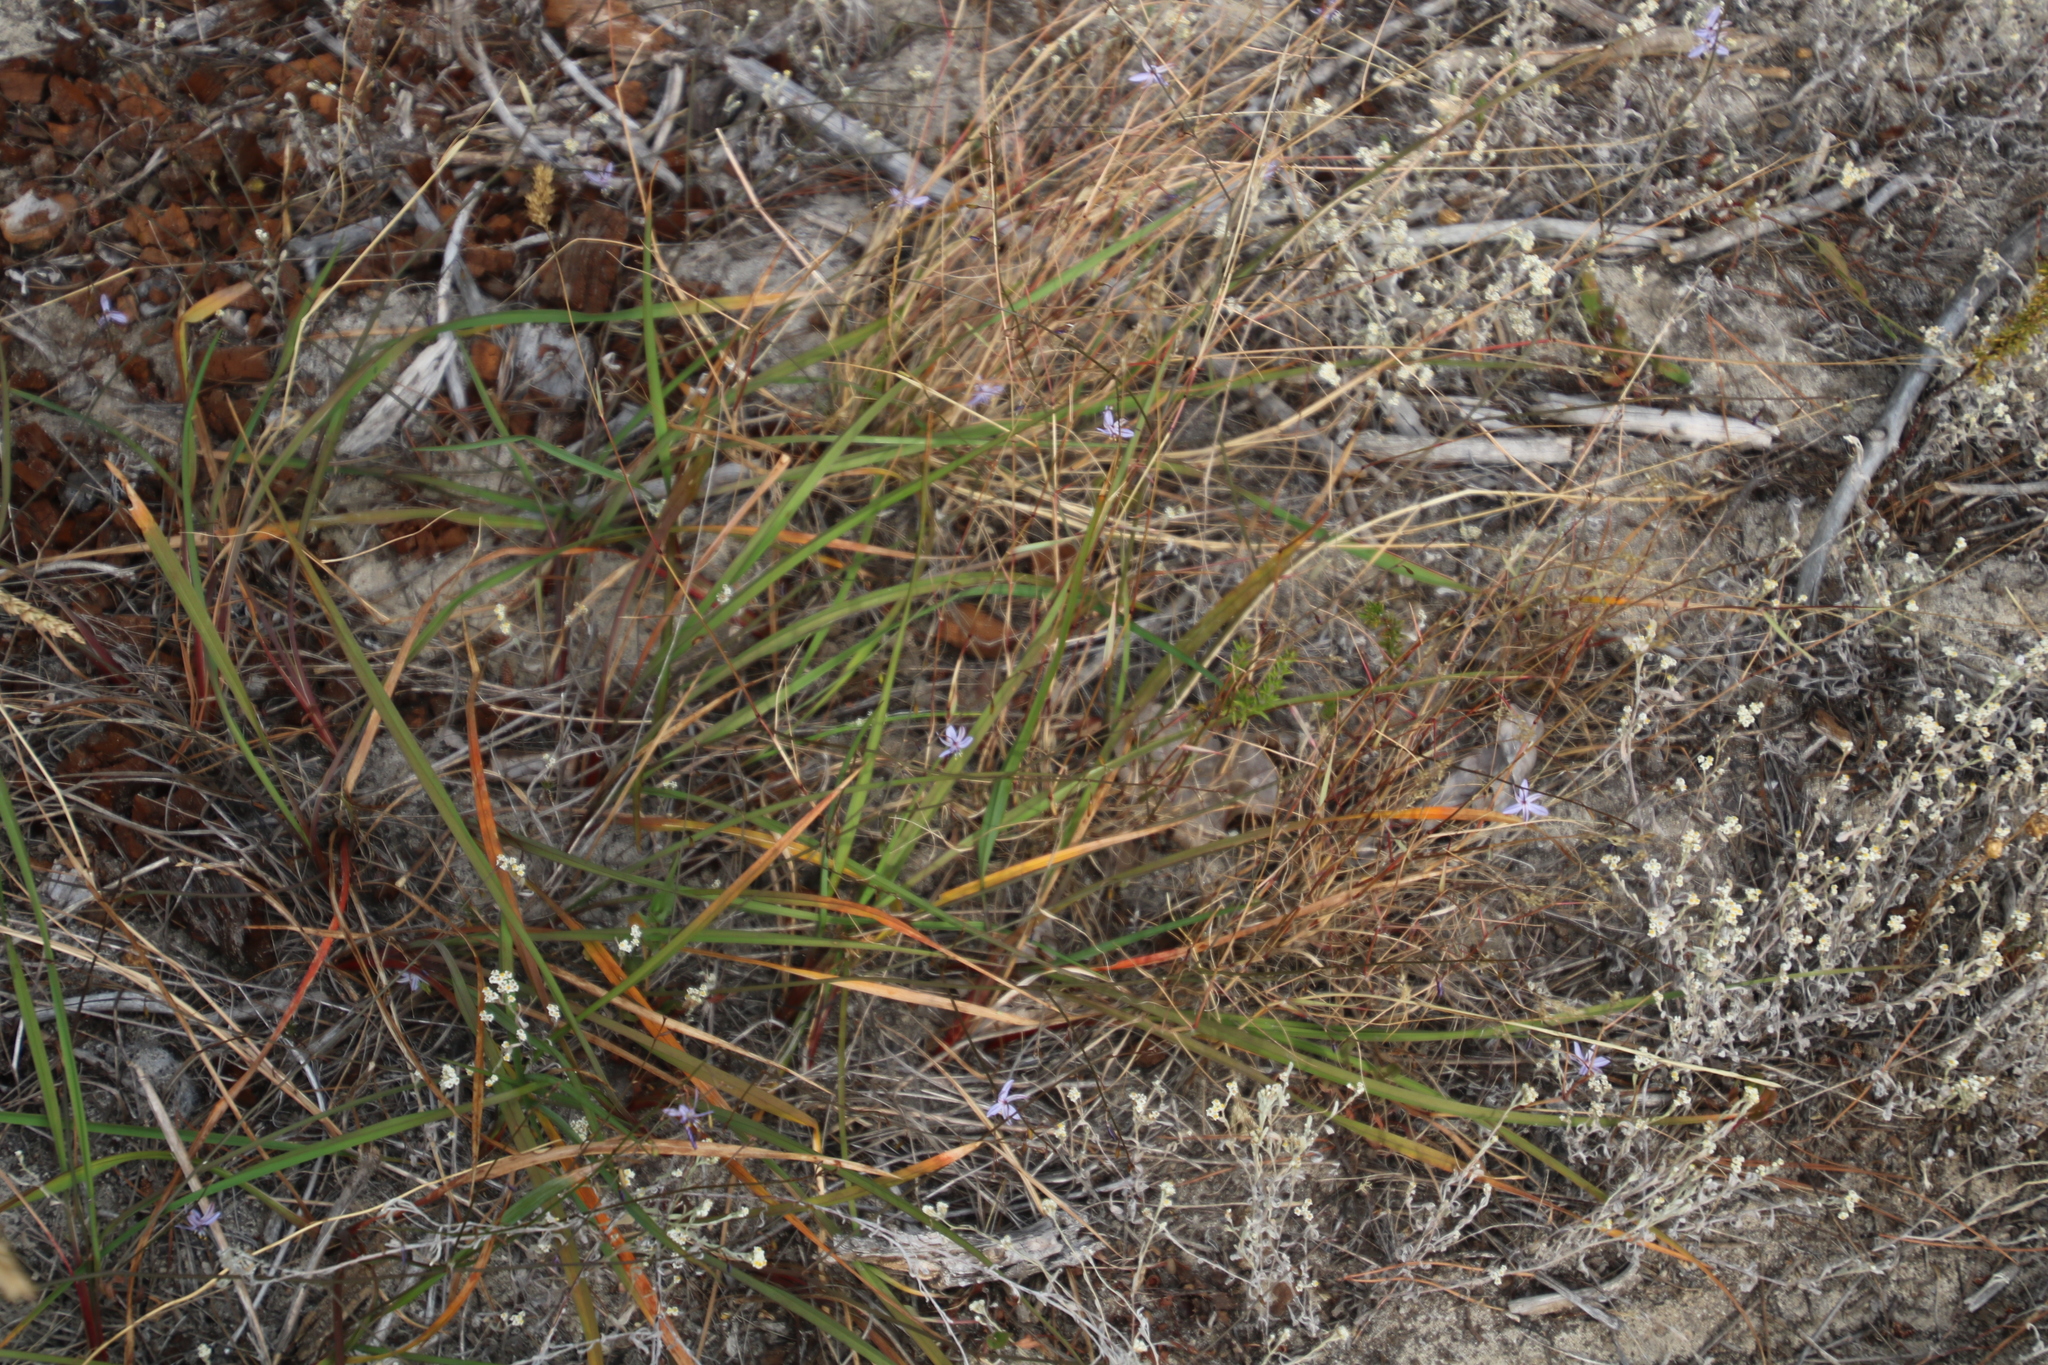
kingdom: Plantae
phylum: Tracheophyta
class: Liliopsida
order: Asparagales
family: Asphodelaceae
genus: Caesia
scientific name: Caesia contorta
